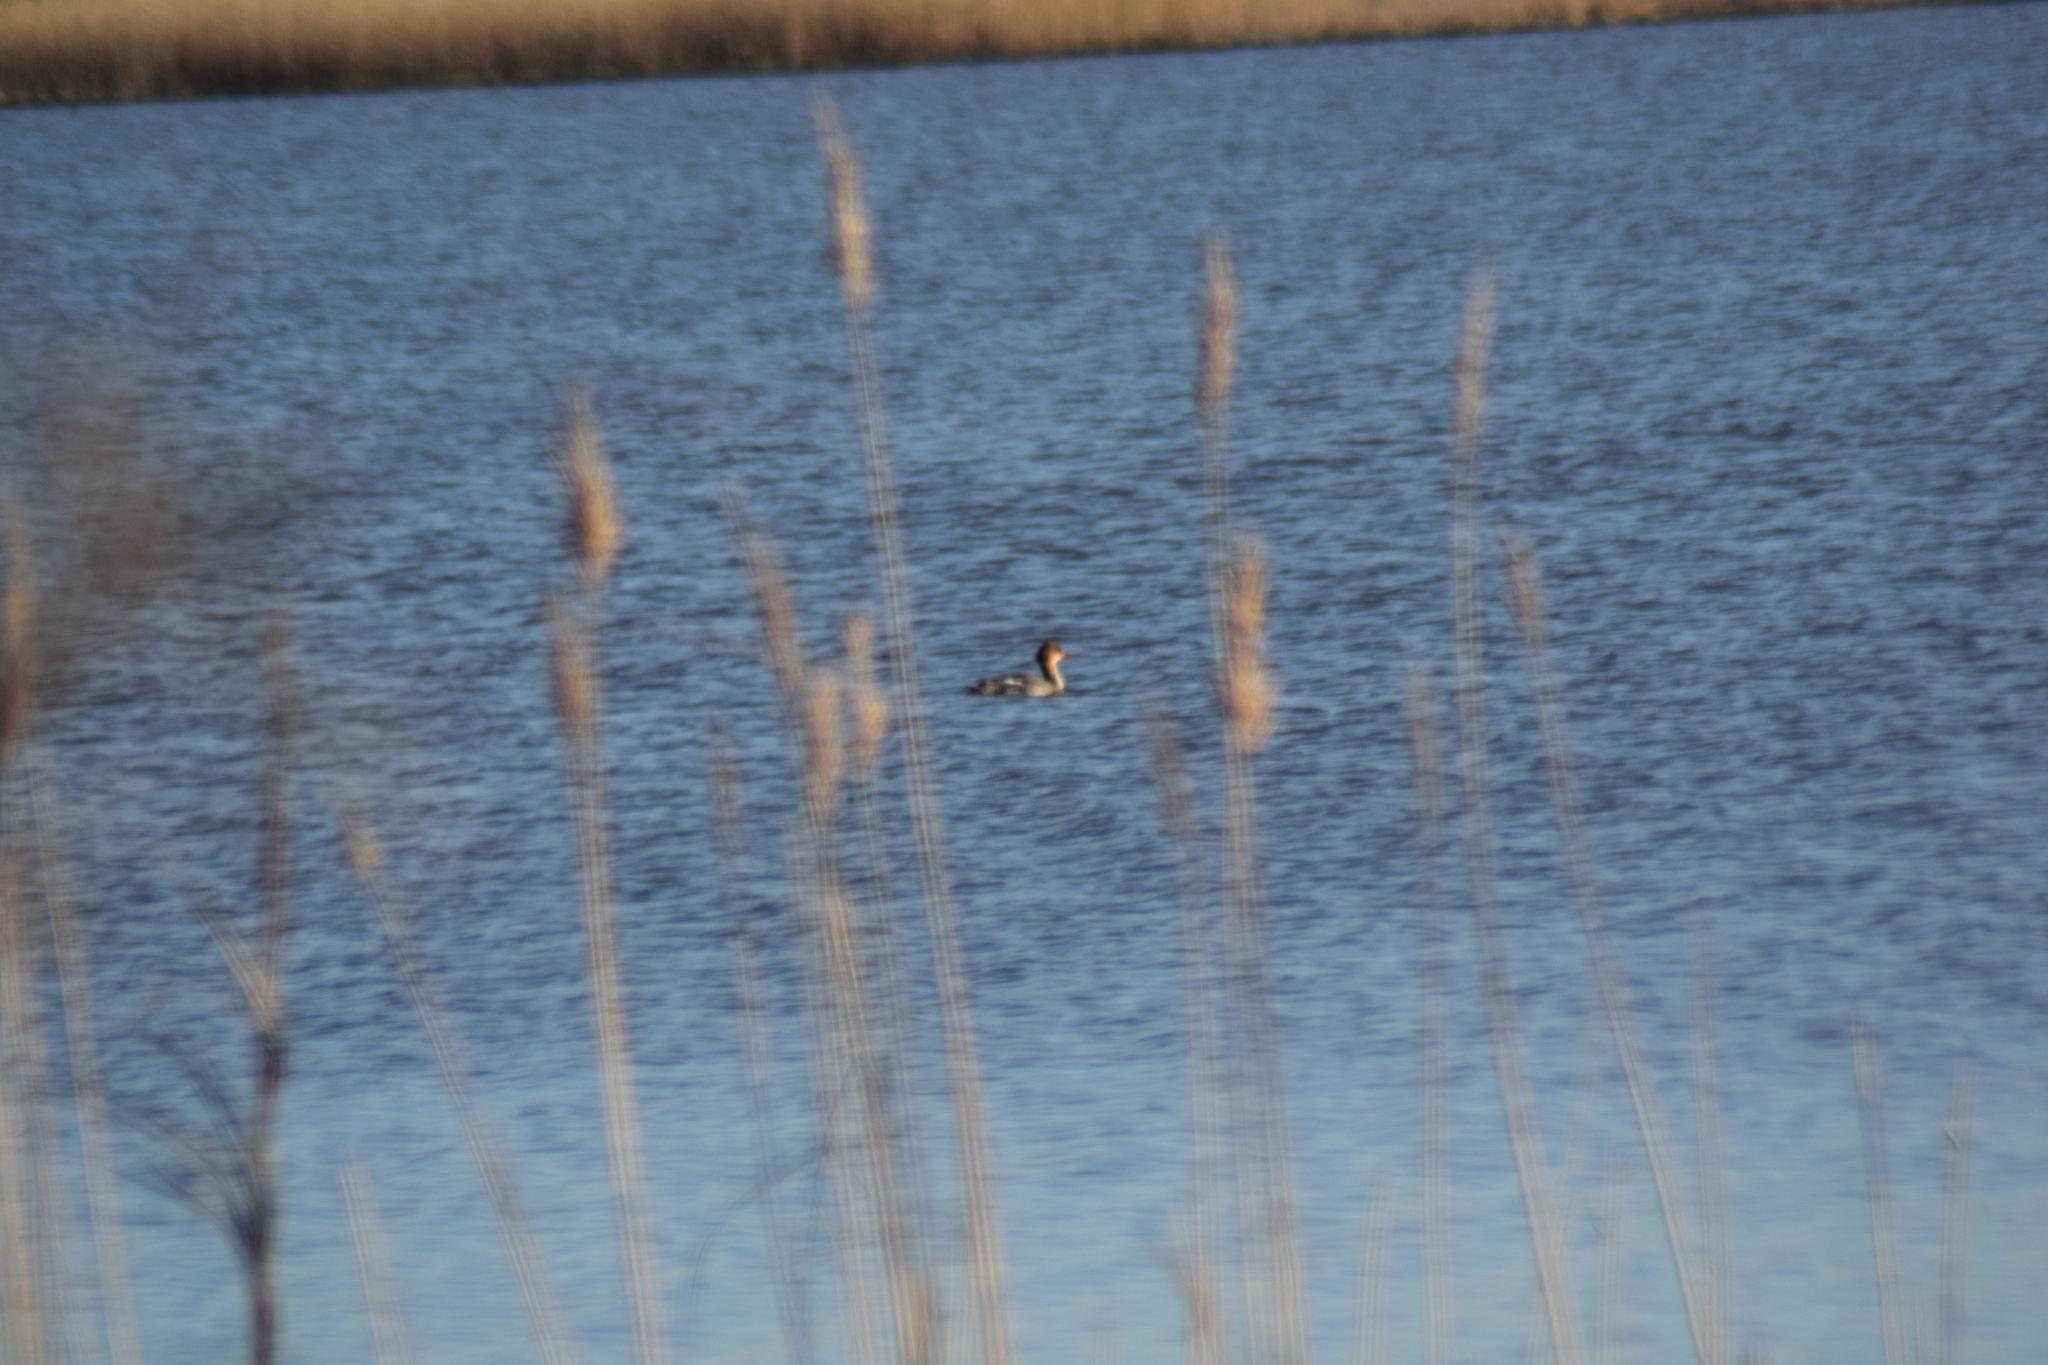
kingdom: Animalia
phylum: Chordata
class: Aves
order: Anseriformes
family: Anatidae
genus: Mergus
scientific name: Mergus serrator
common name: Red-breasted merganser
